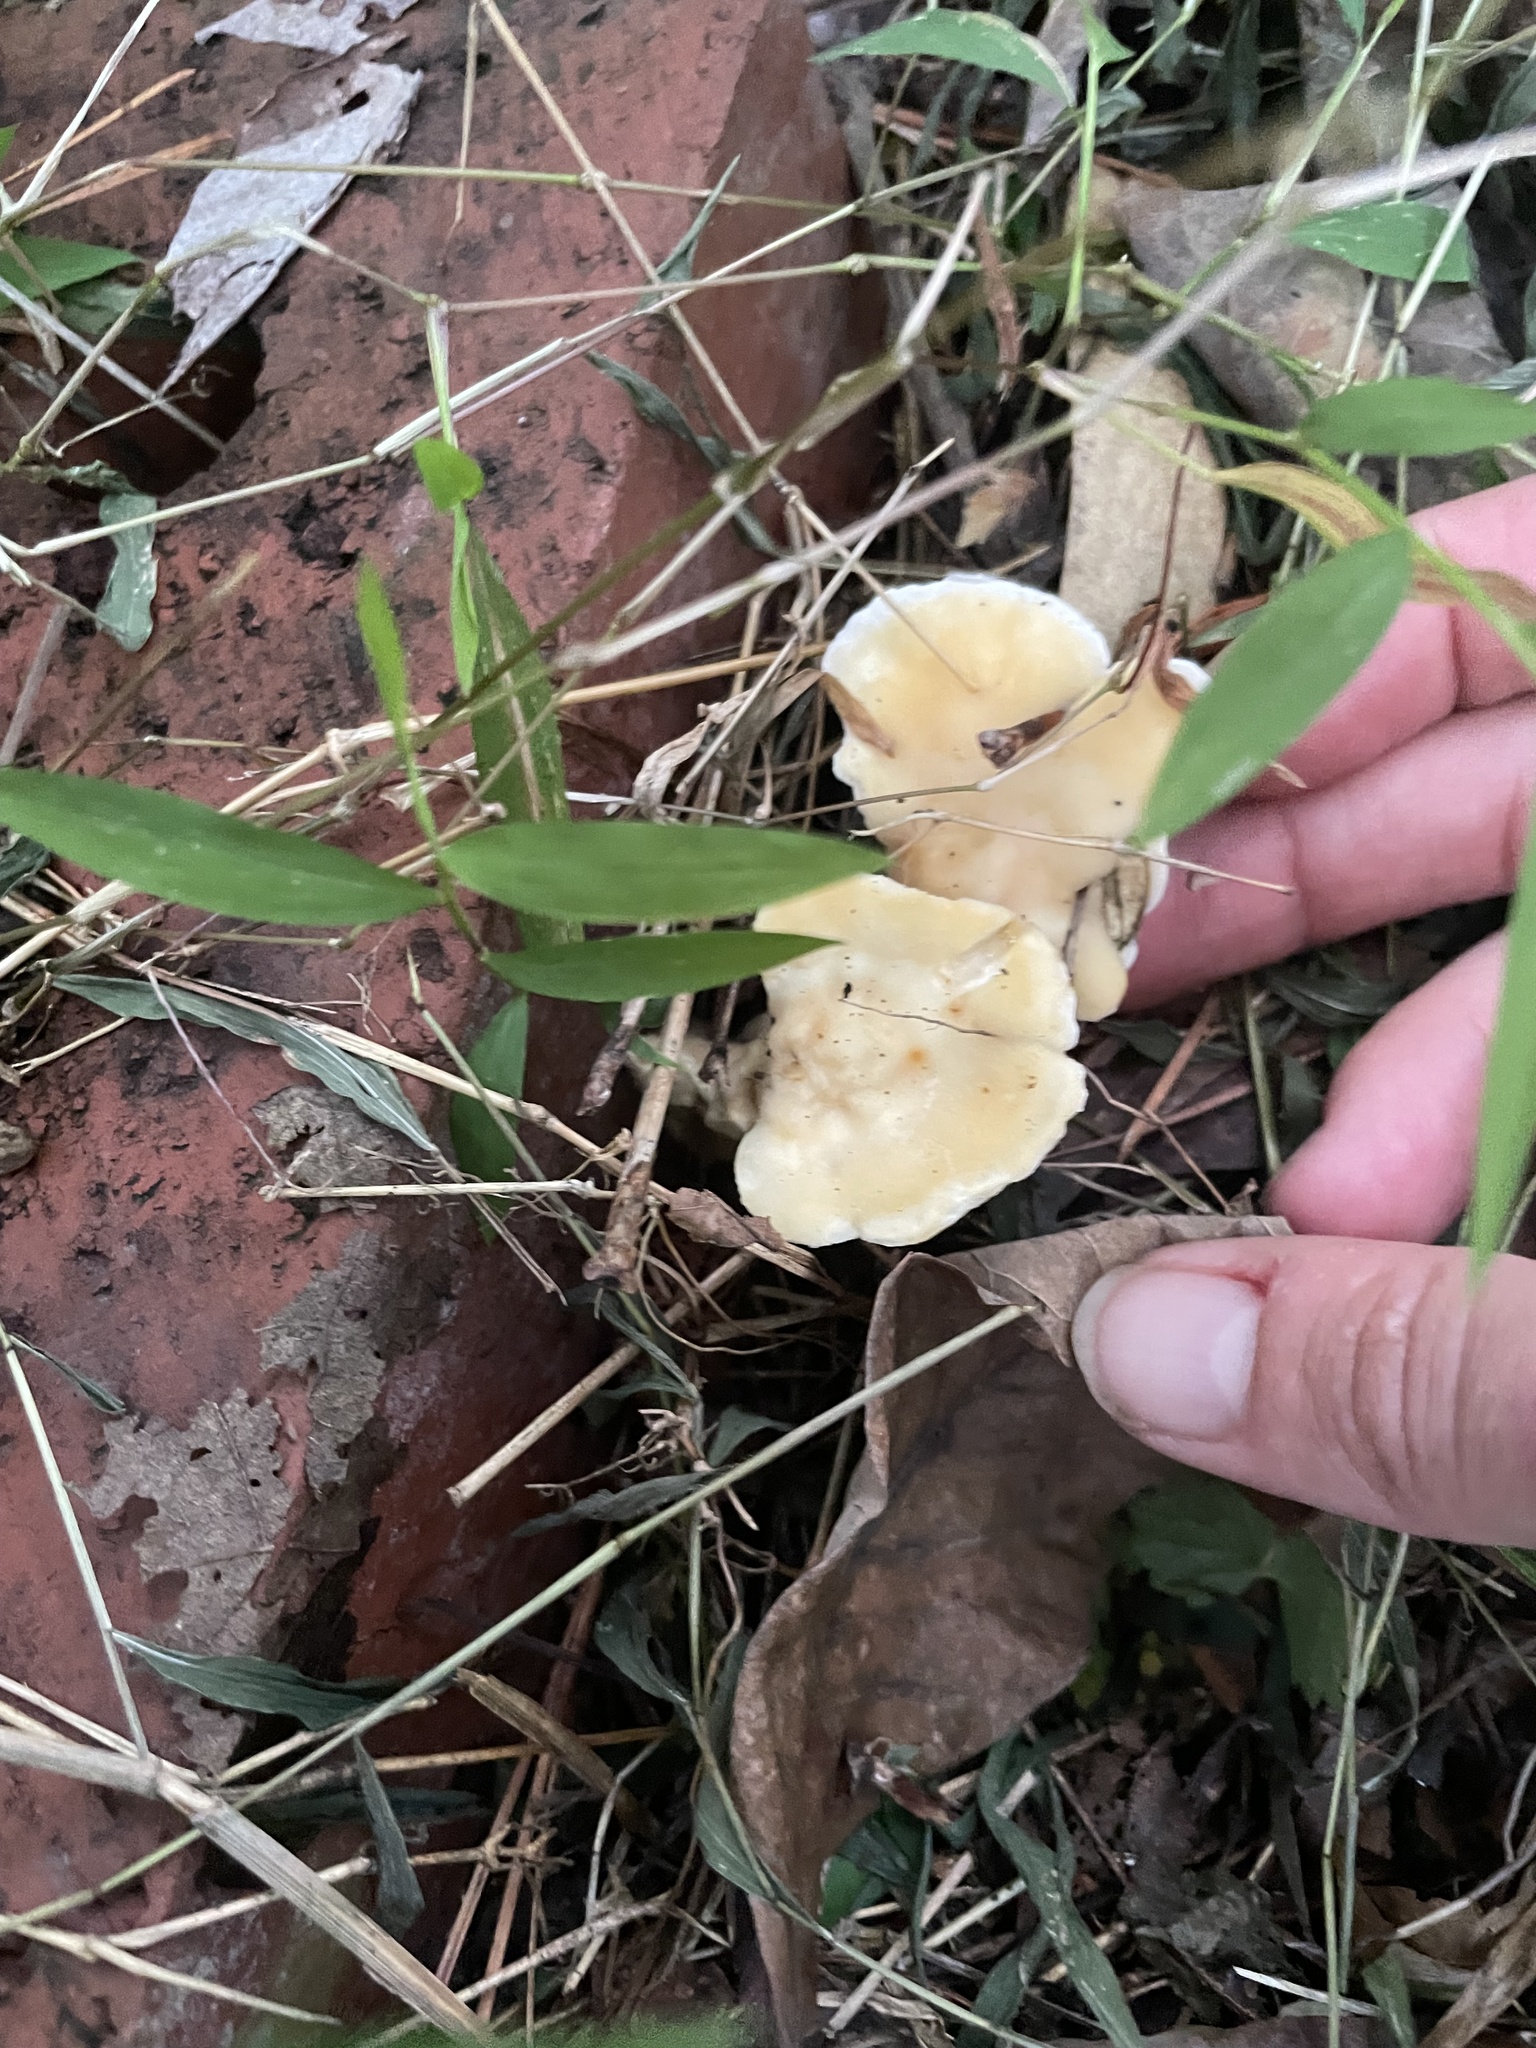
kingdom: Fungi
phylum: Basidiomycota
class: Agaricomycetes
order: Polyporales
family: Steccherinaceae
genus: Loweomyces
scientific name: Loweomyces fractipes
